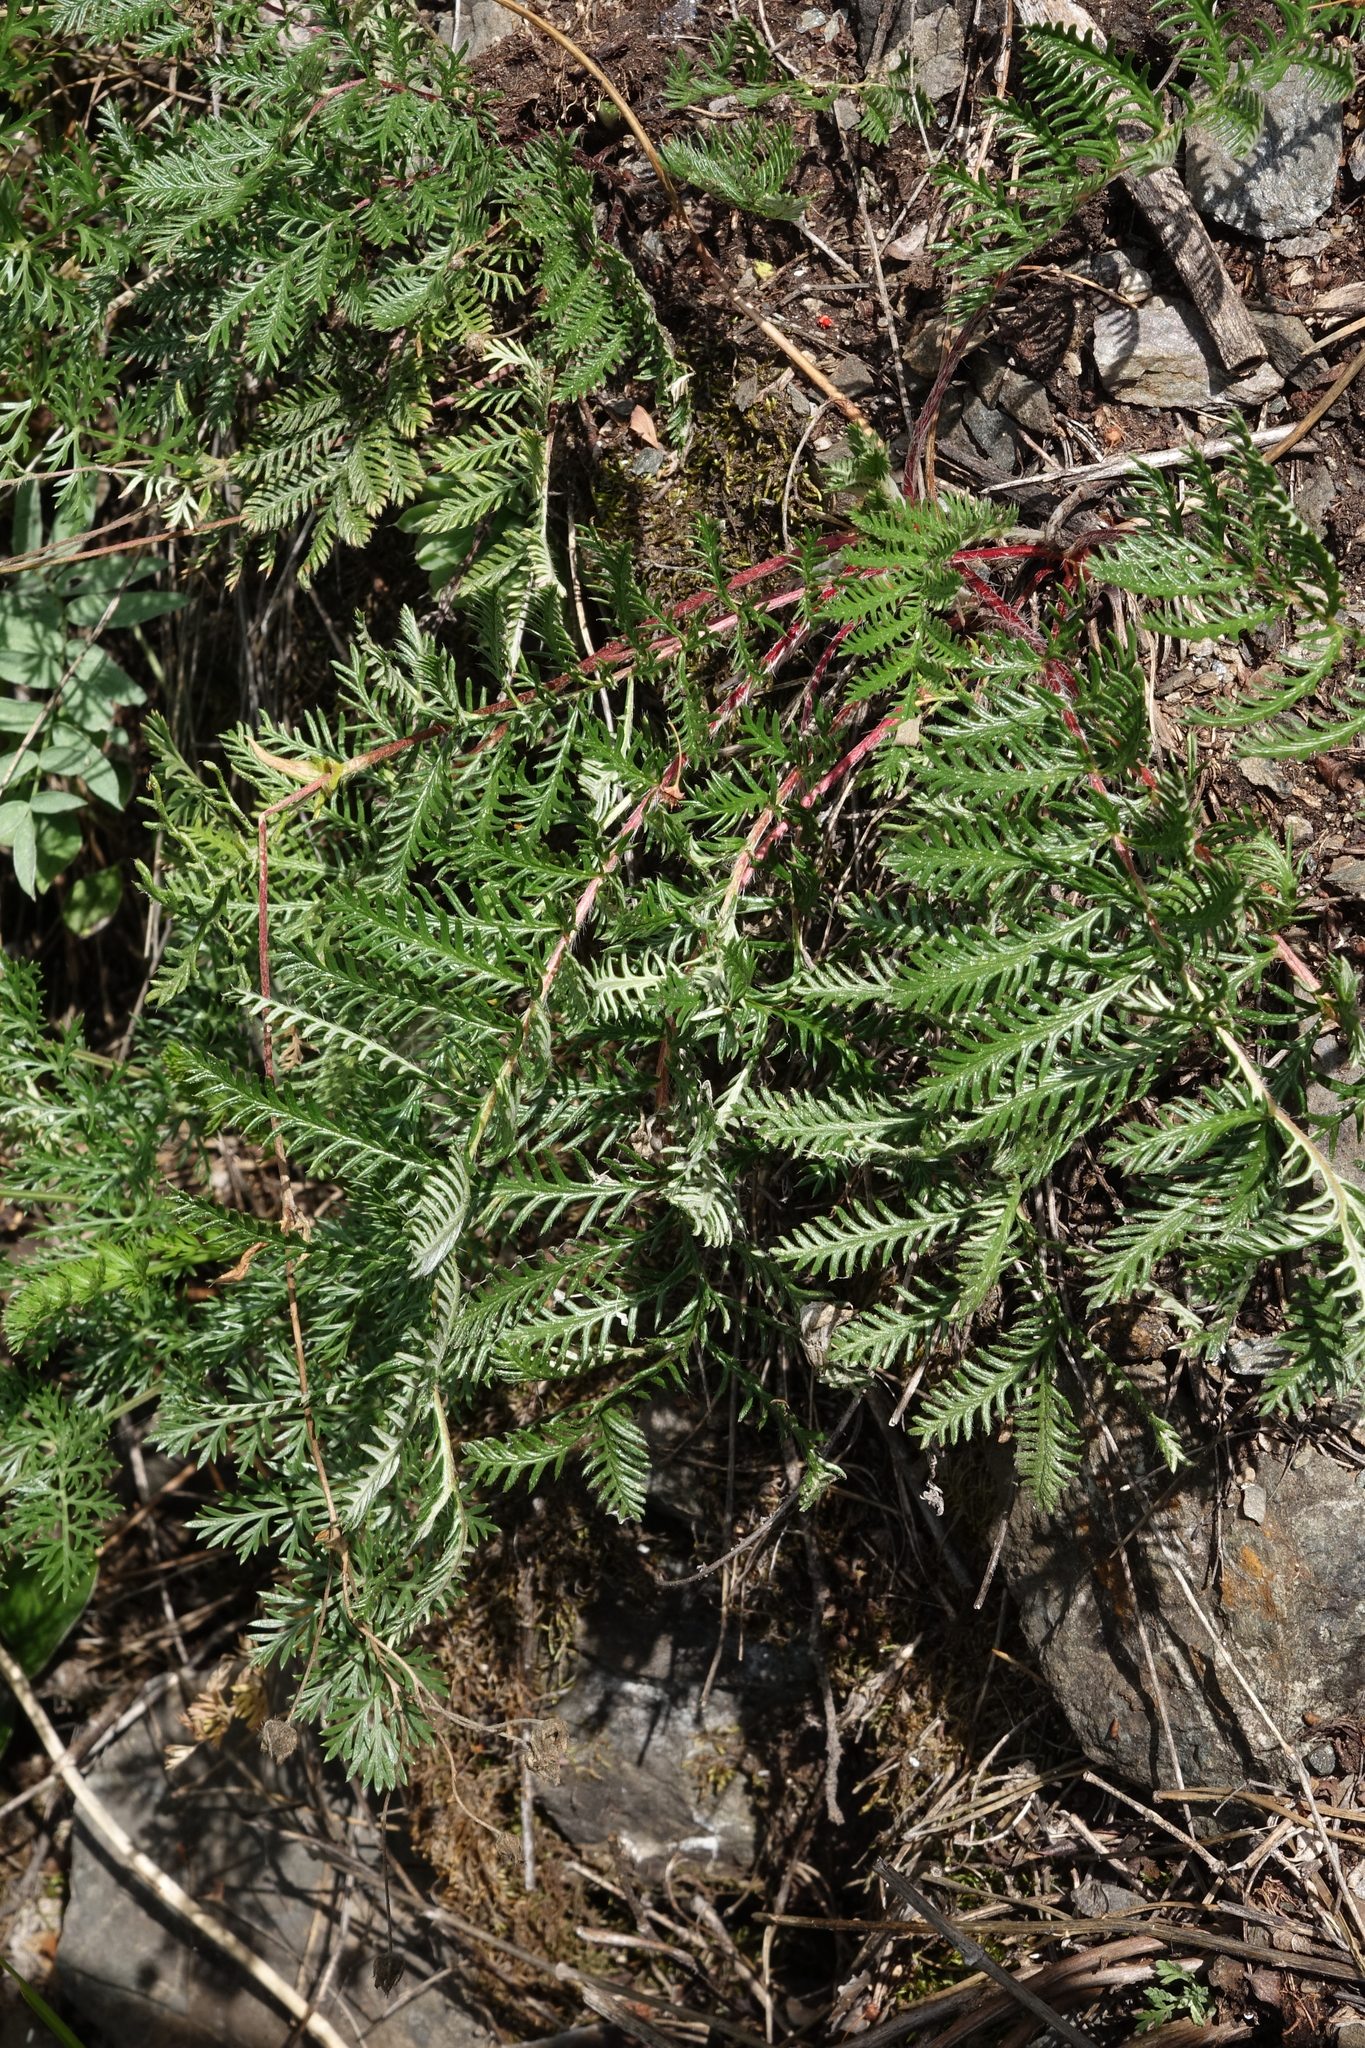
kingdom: Plantae
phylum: Tracheophyta
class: Magnoliopsida
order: Rosales
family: Rosaceae
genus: Potentilla
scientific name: Potentilla sericea
